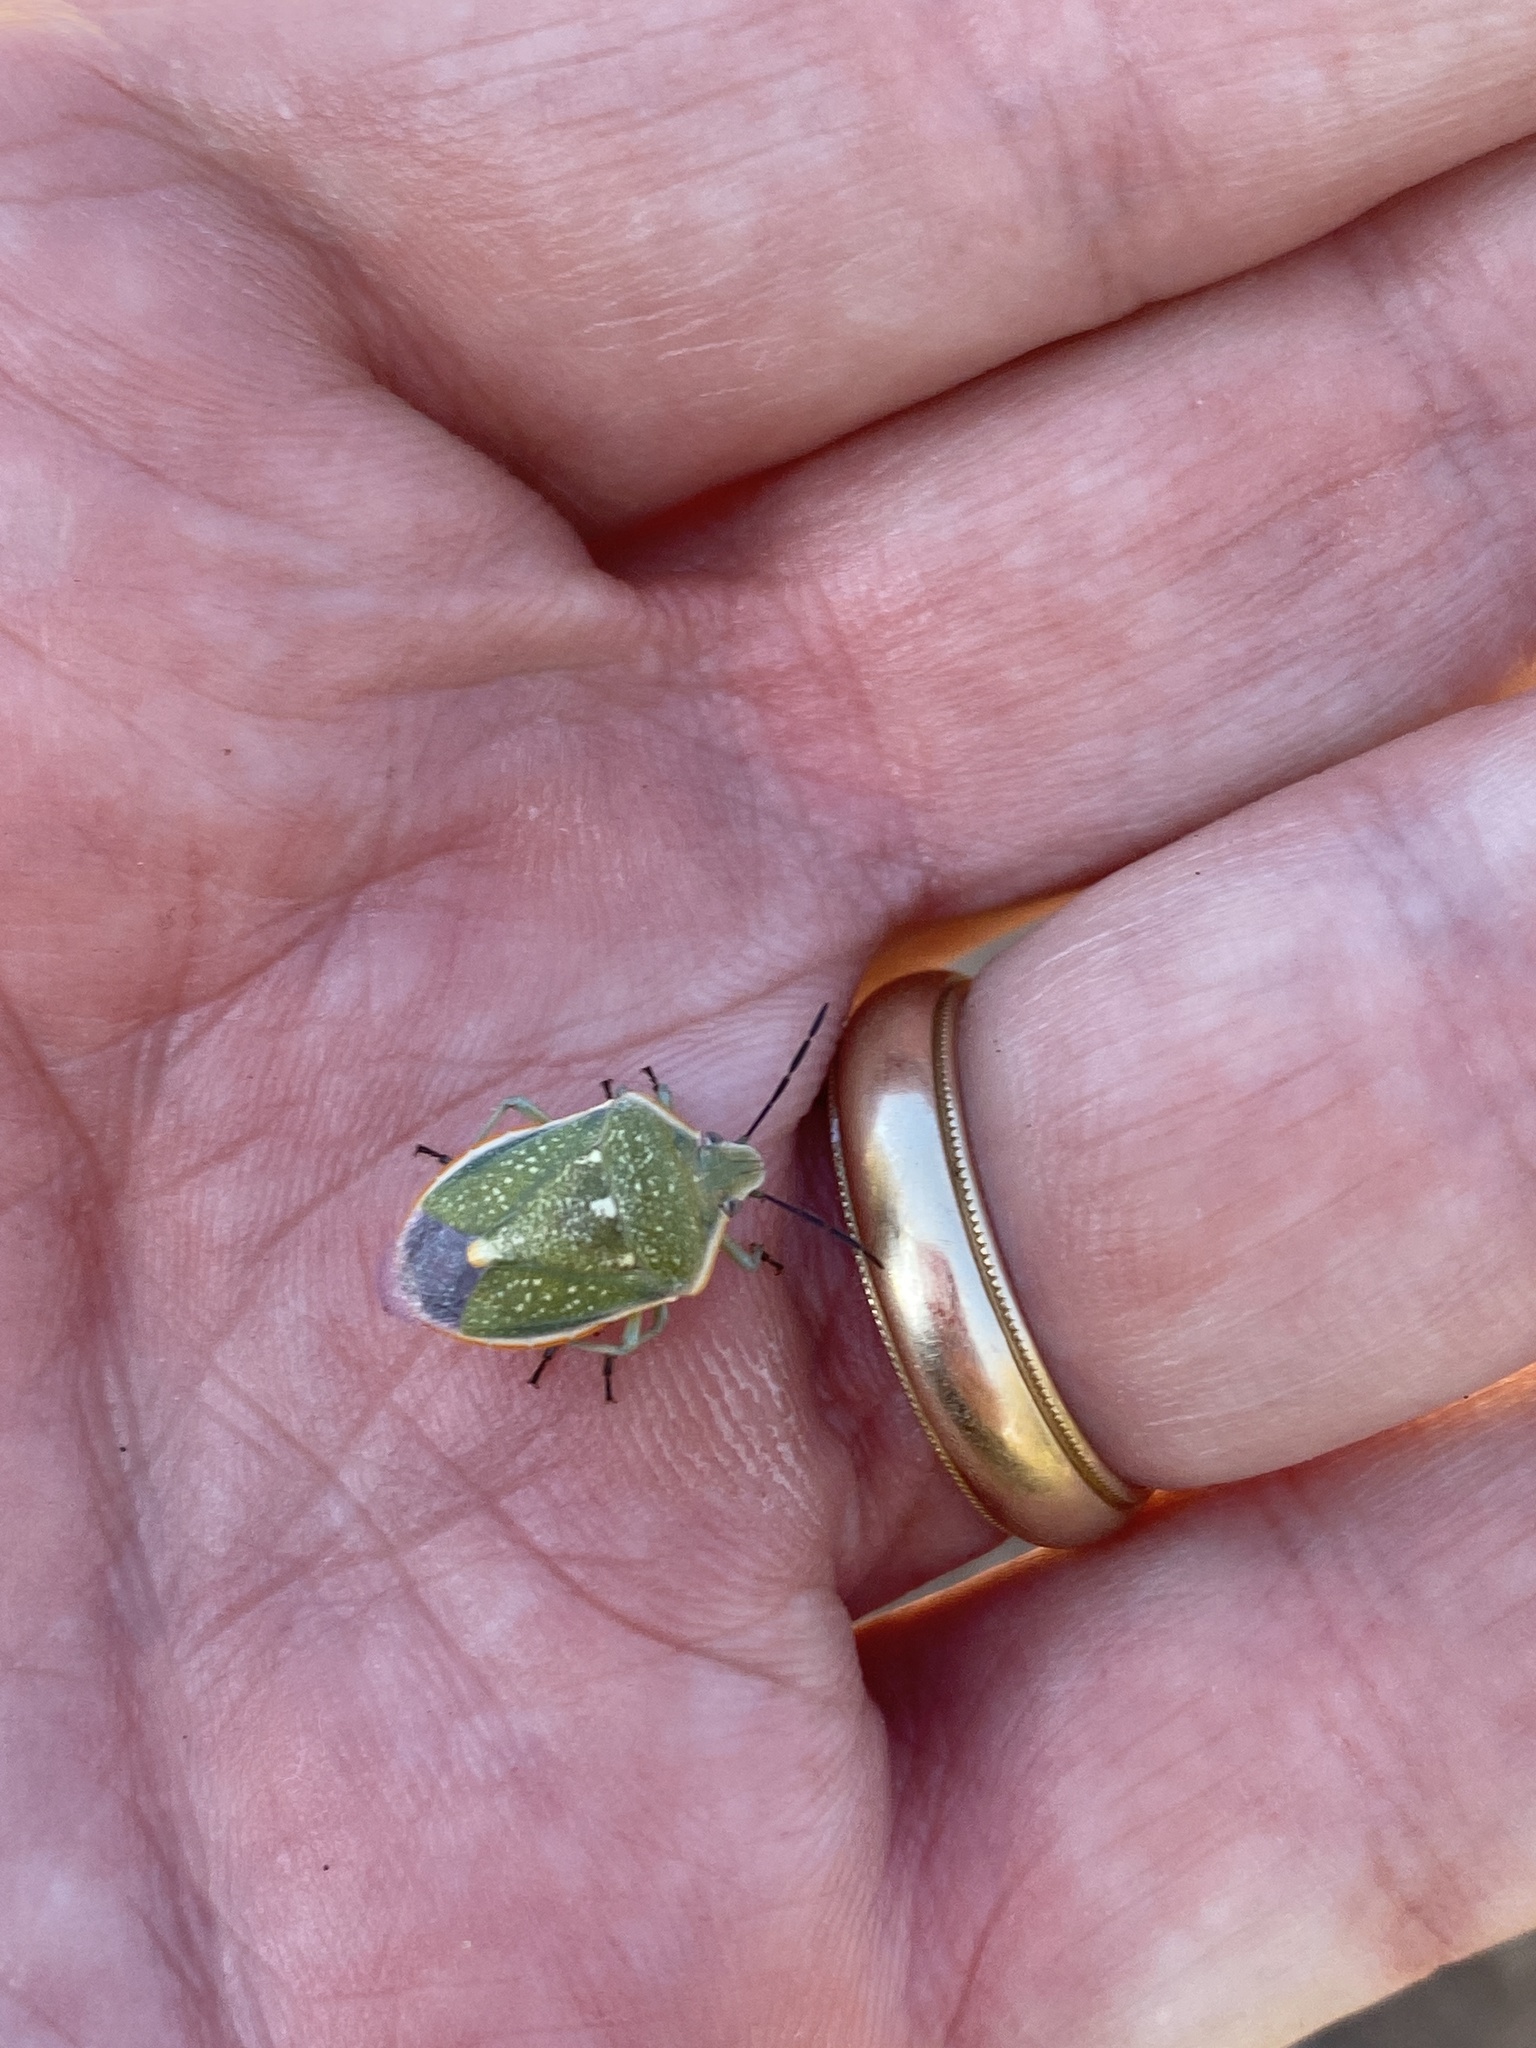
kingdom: Animalia
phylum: Arthropoda
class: Insecta
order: Hemiptera
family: Pentatomidae
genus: Chlorochroa
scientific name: Chlorochroa sayi
